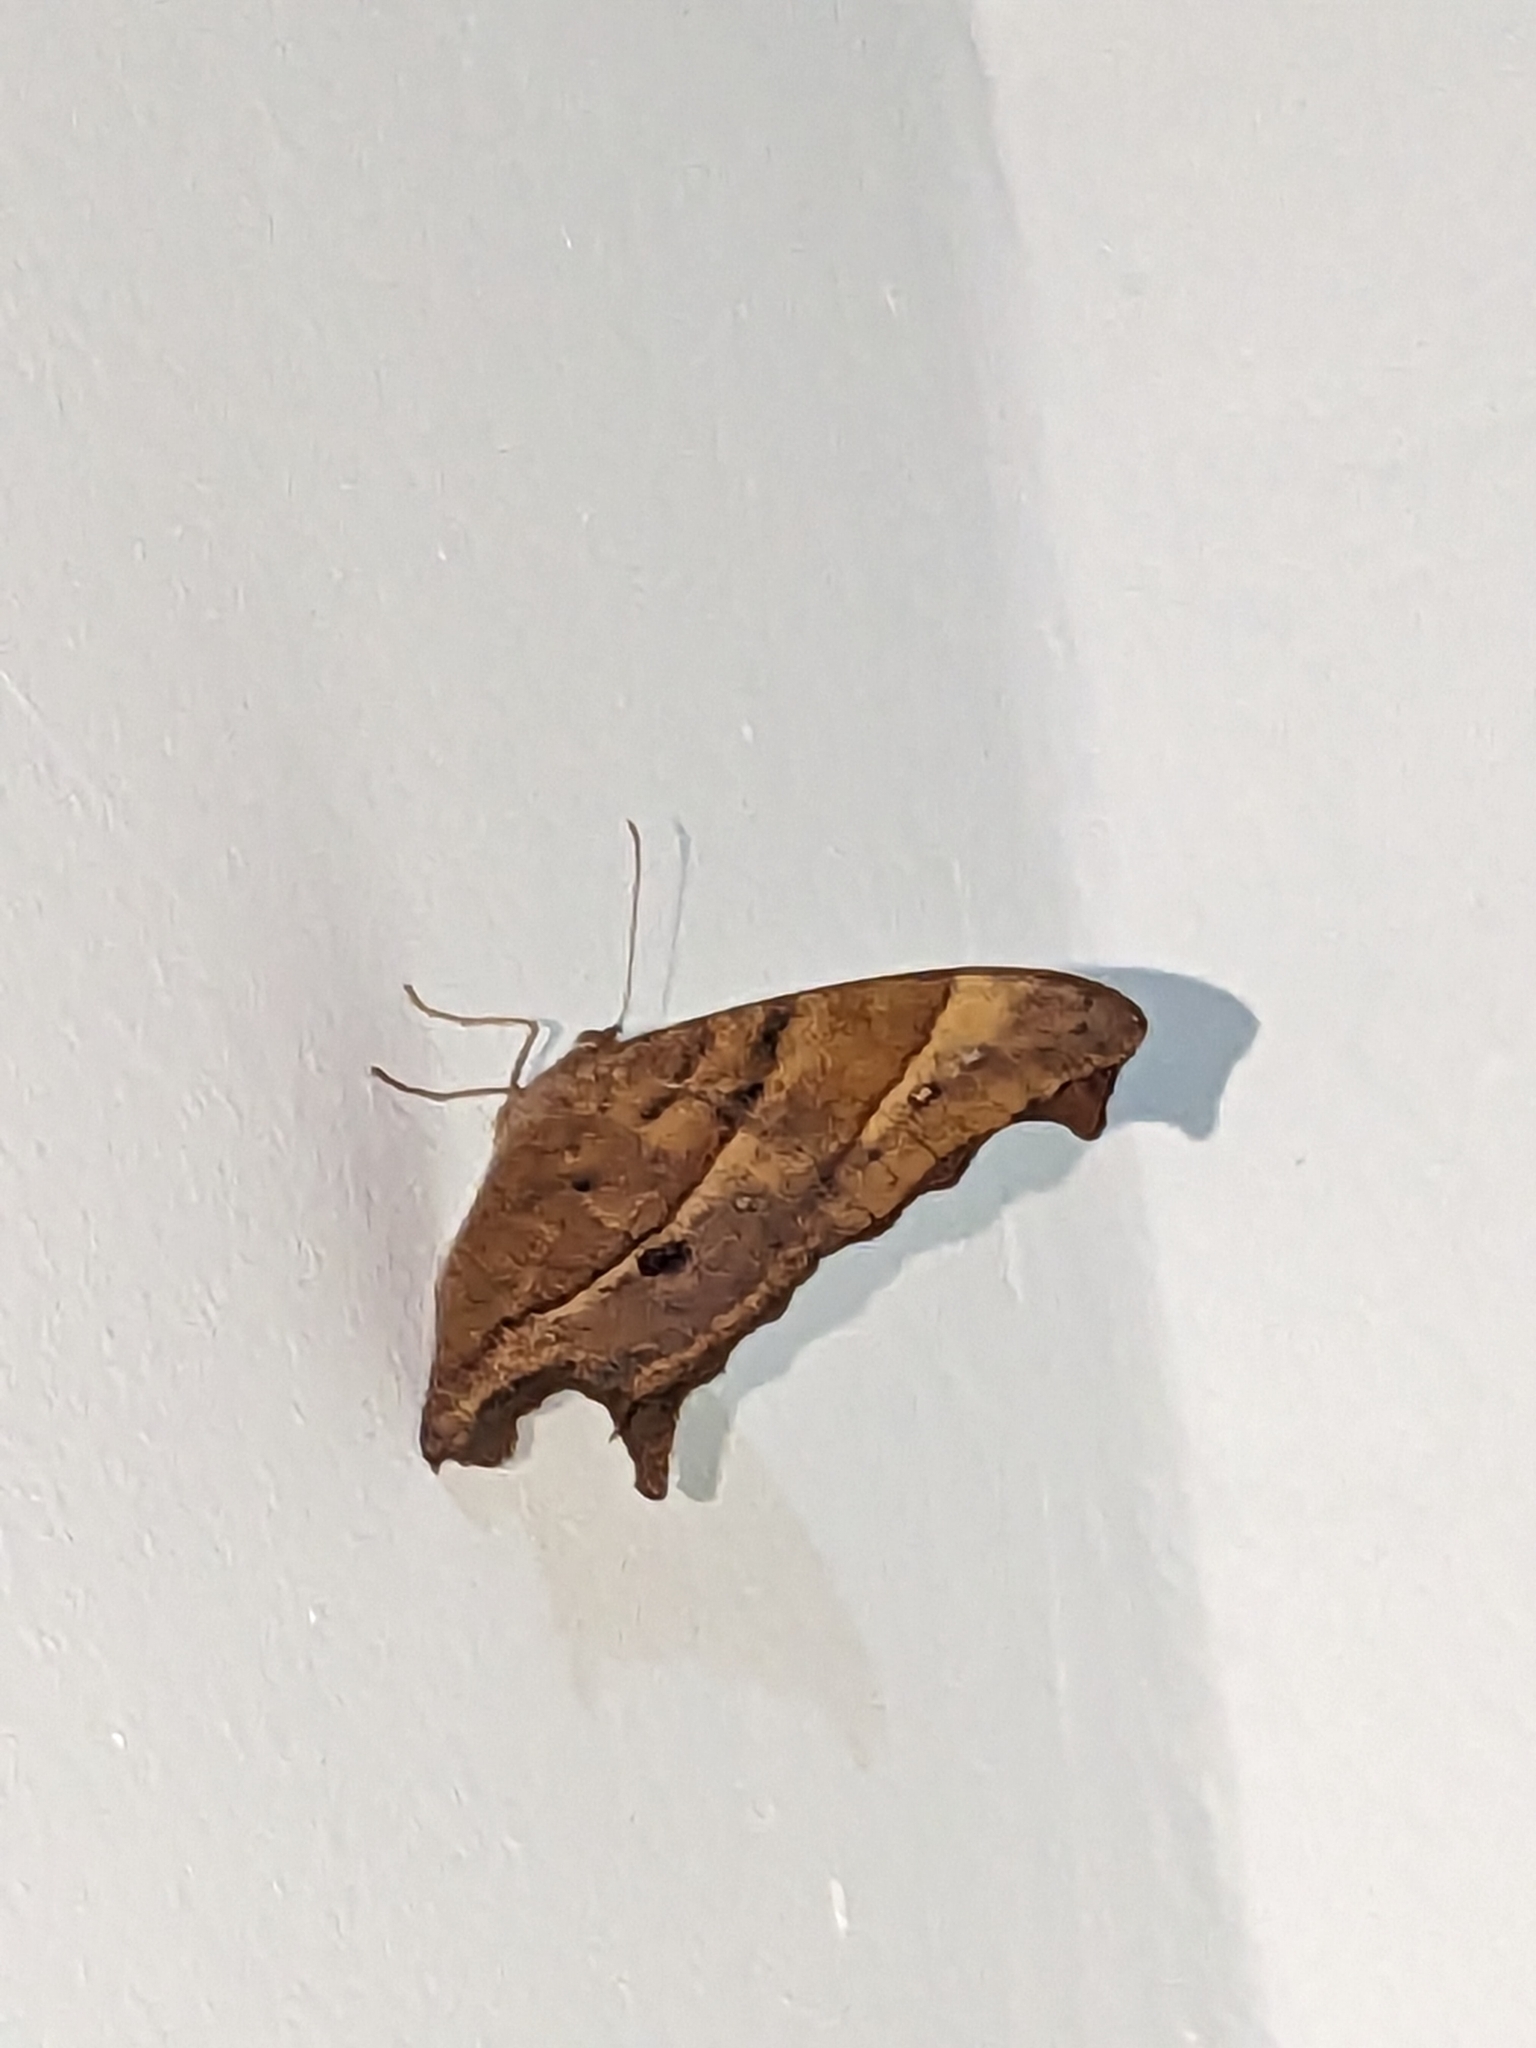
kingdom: Animalia
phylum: Arthropoda
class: Insecta
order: Lepidoptera
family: Nymphalidae
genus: Melanitis
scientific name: Melanitis leda
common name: Twilight brown
